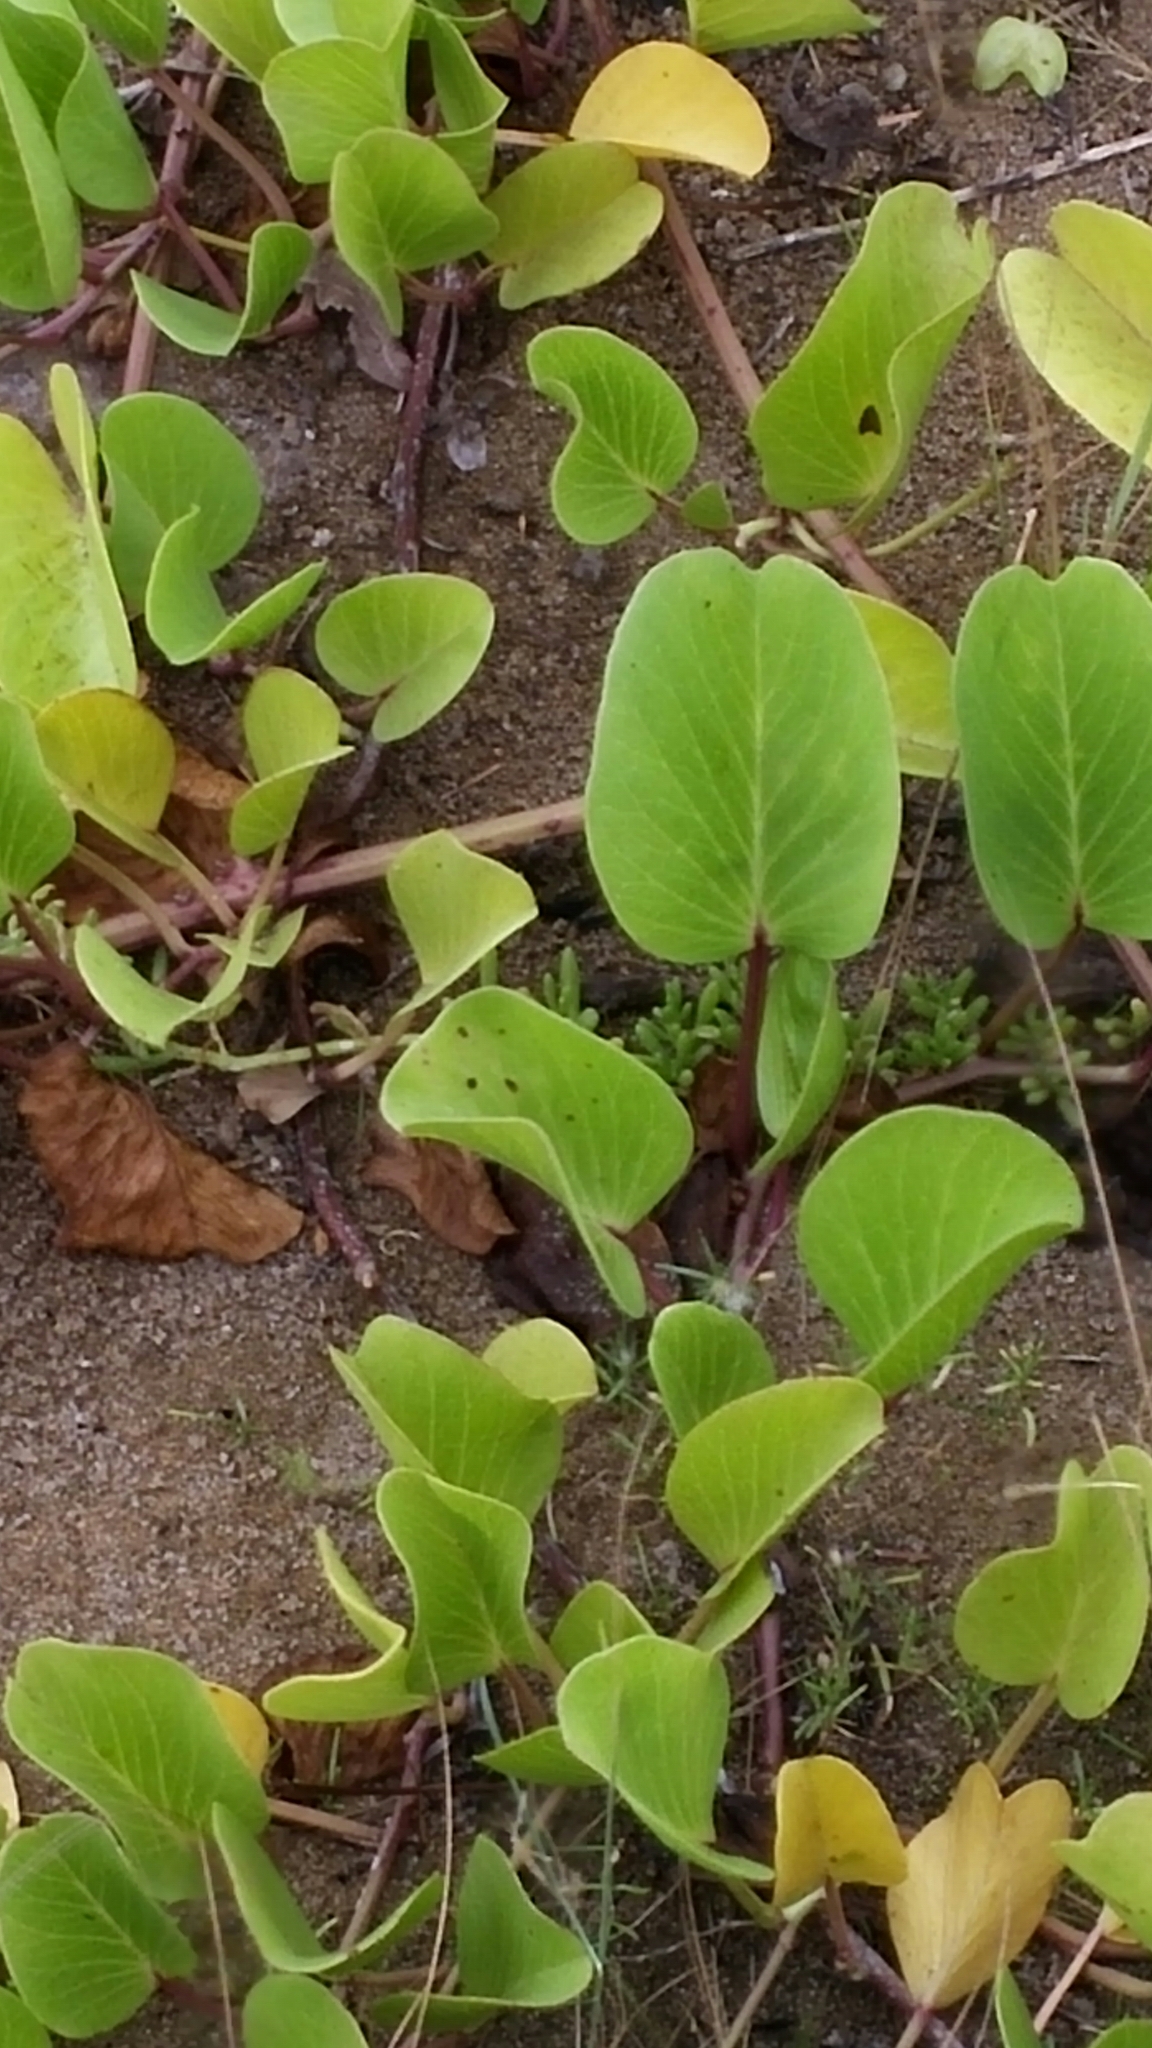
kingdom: Plantae
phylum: Tracheophyta
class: Magnoliopsida
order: Solanales
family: Convolvulaceae
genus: Ipomoea
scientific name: Ipomoea pes-caprae
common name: Beach morning glory
